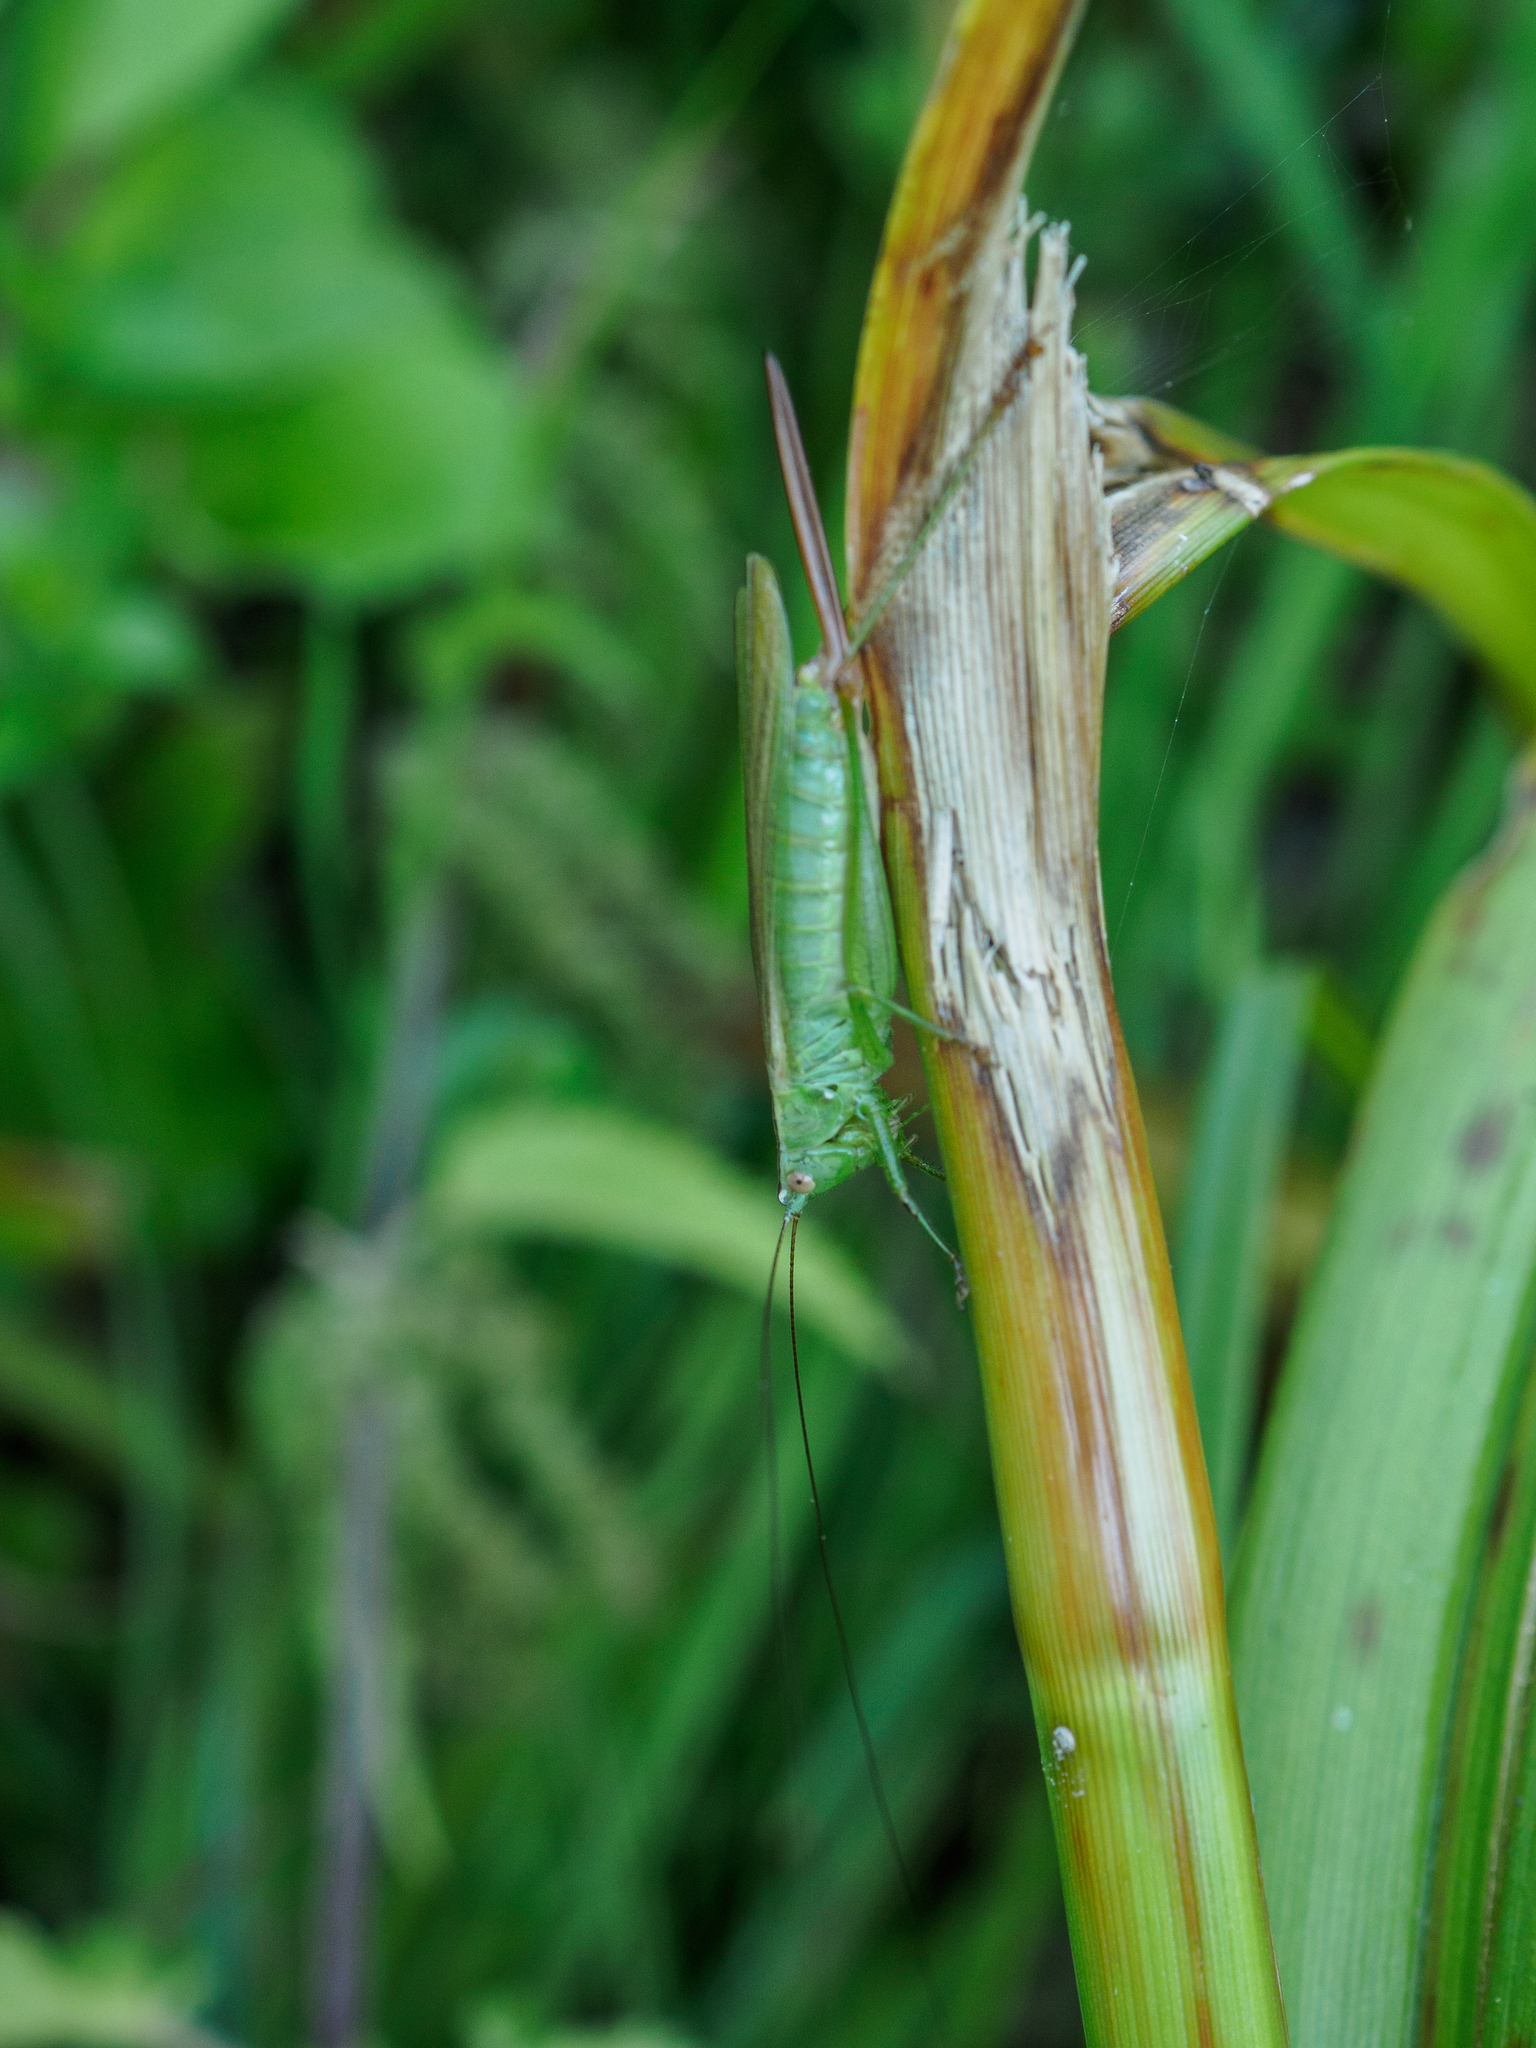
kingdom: Animalia
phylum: Arthropoda
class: Insecta
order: Orthoptera
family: Tettigoniidae
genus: Conocephalus
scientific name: Conocephalus fuscus
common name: Long-winged conehead
